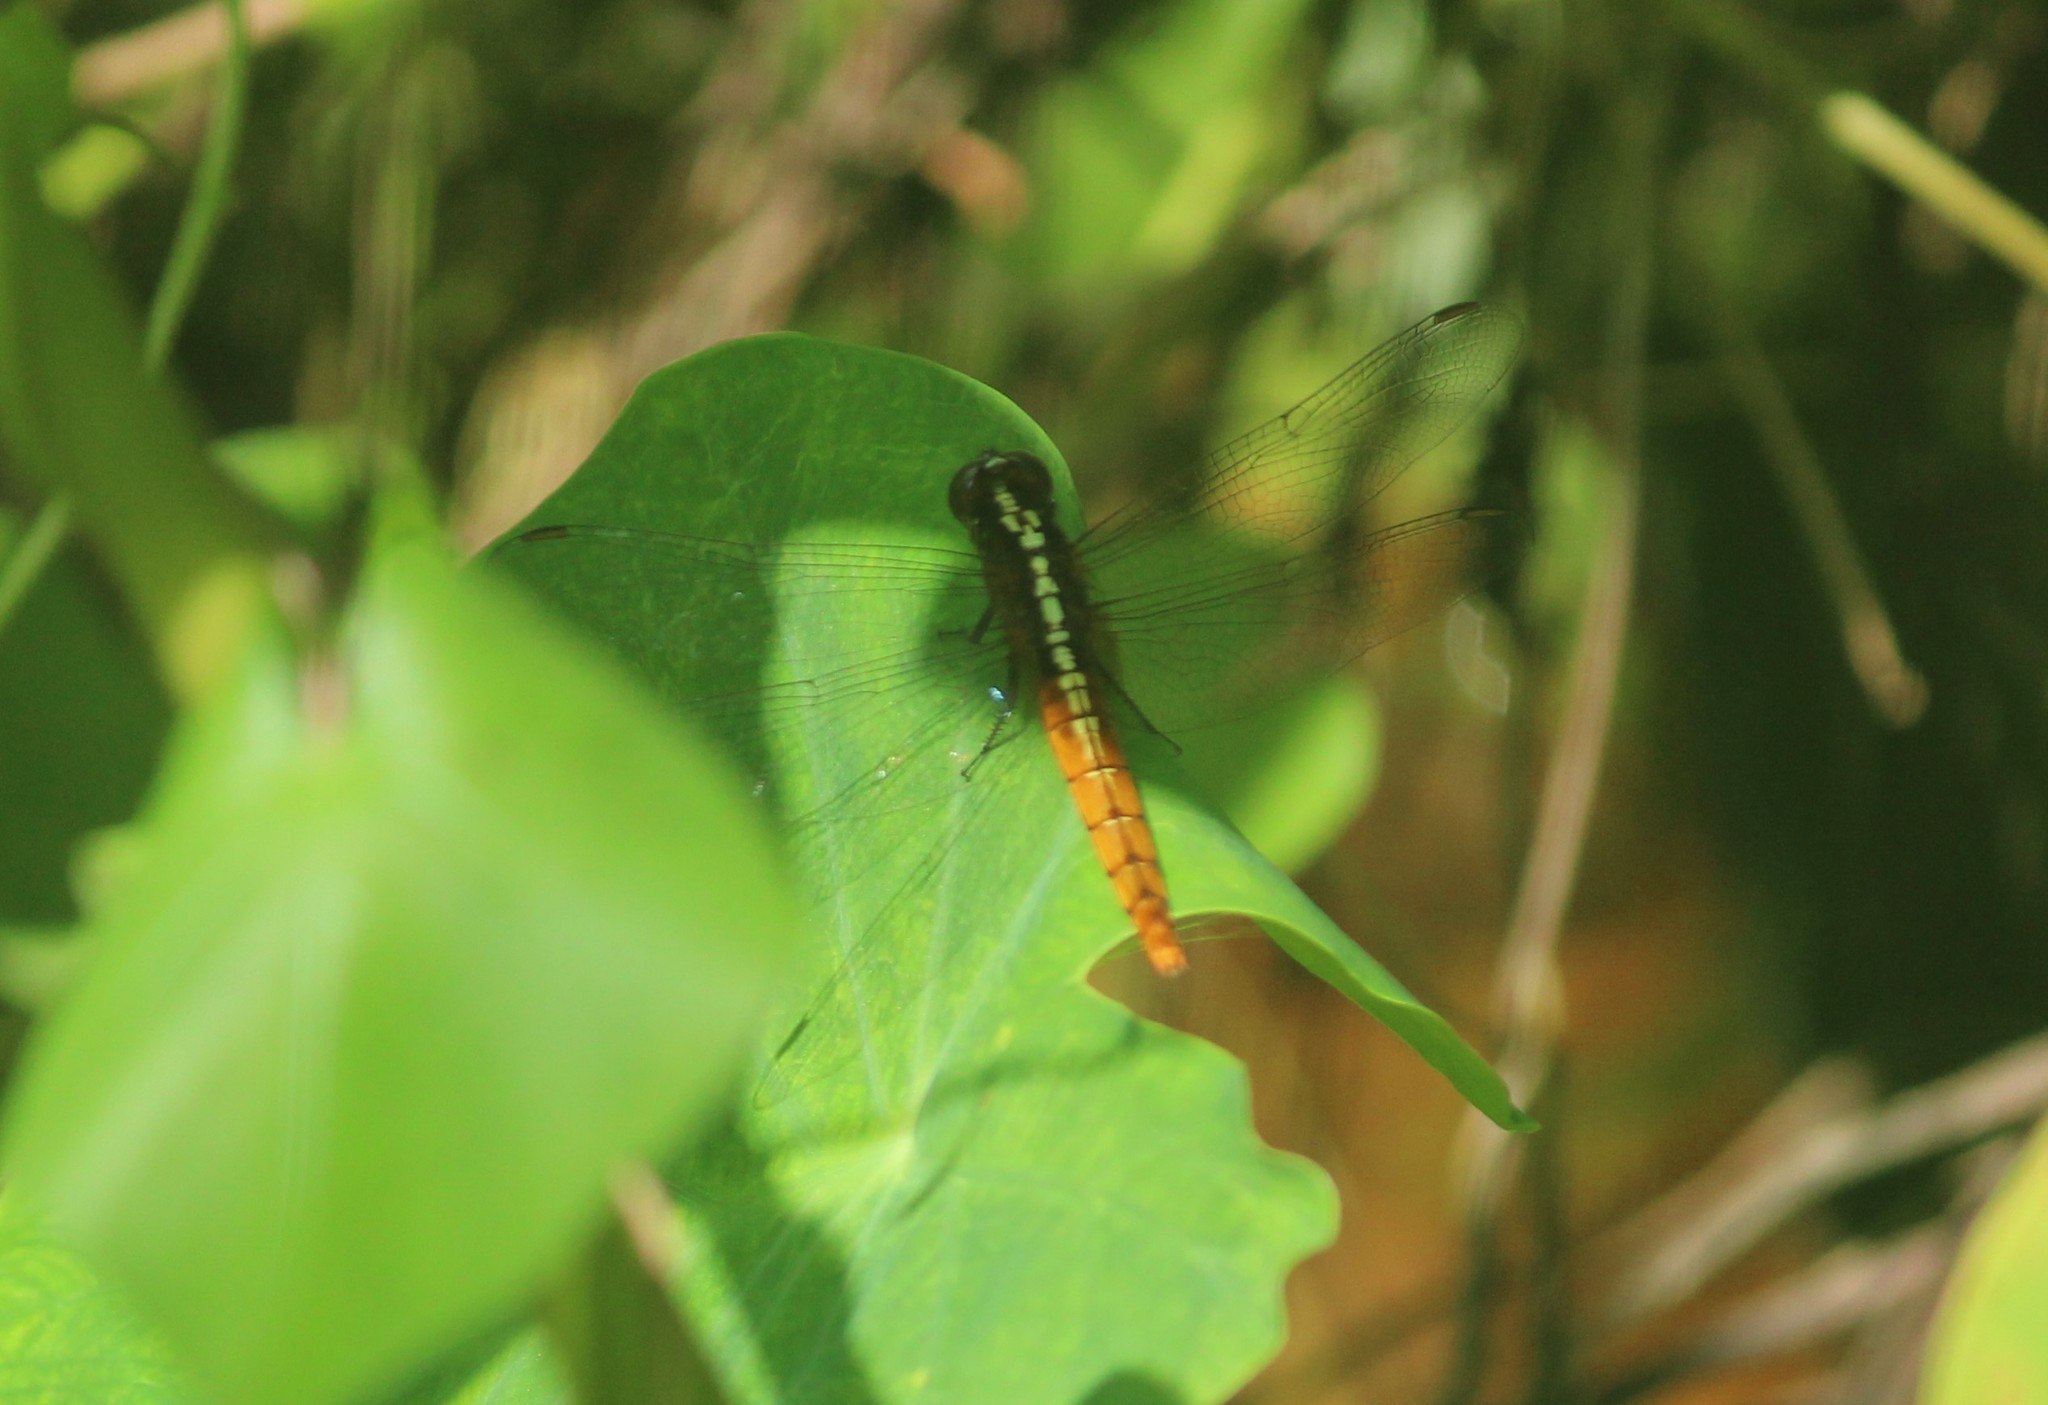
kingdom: Animalia
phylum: Arthropoda
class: Insecta
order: Odonata
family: Libellulidae
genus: Rhodothemis
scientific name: Rhodothemis rufa
